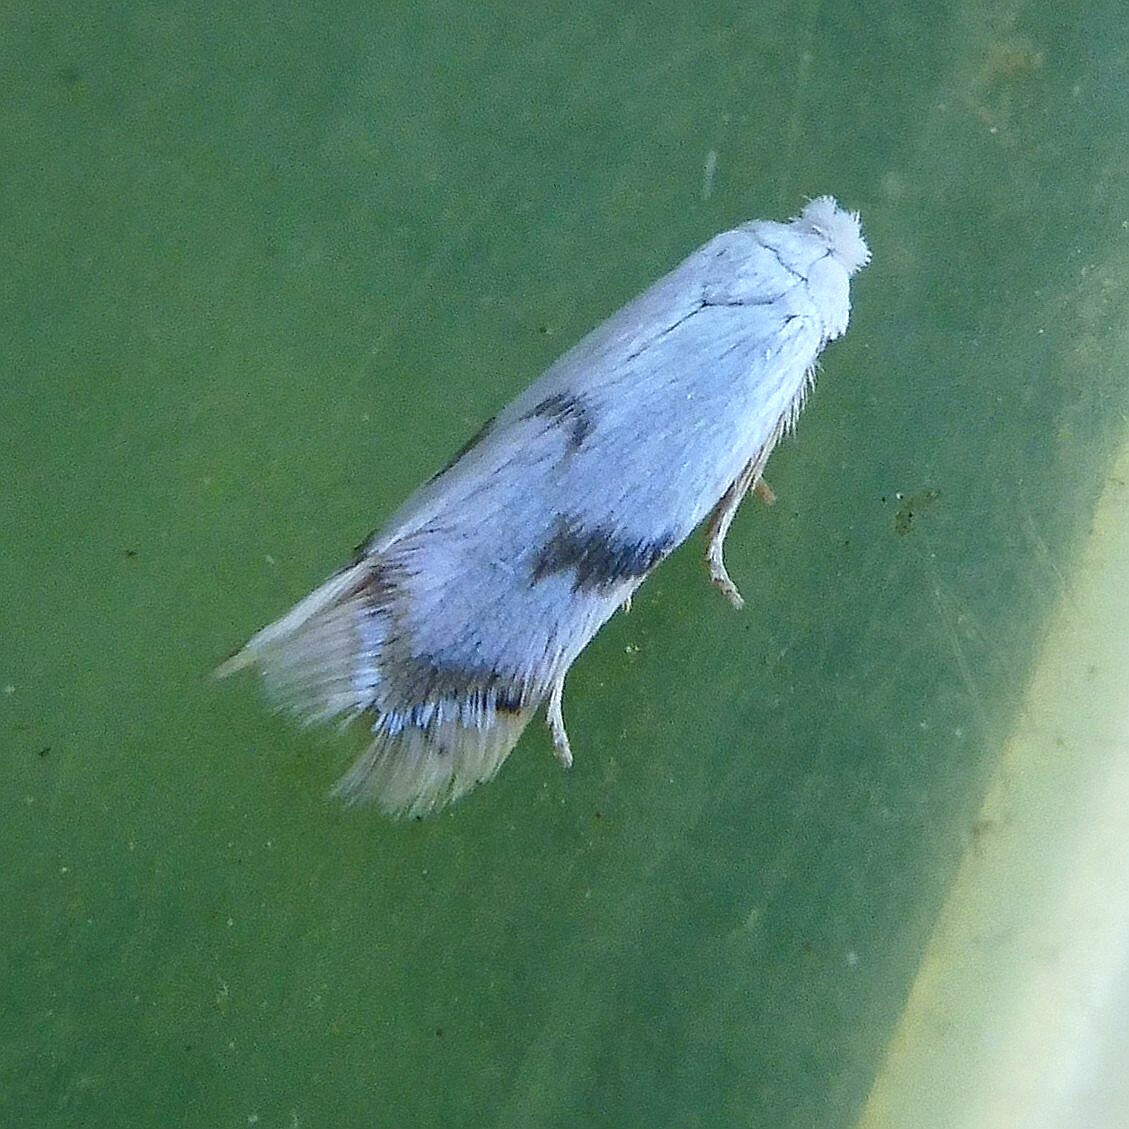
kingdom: Animalia
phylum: Arthropoda
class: Insecta
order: Lepidoptera
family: Opostegidae
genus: Pseudopostega
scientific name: Pseudopostega crepusculella
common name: Mint bent-wing
